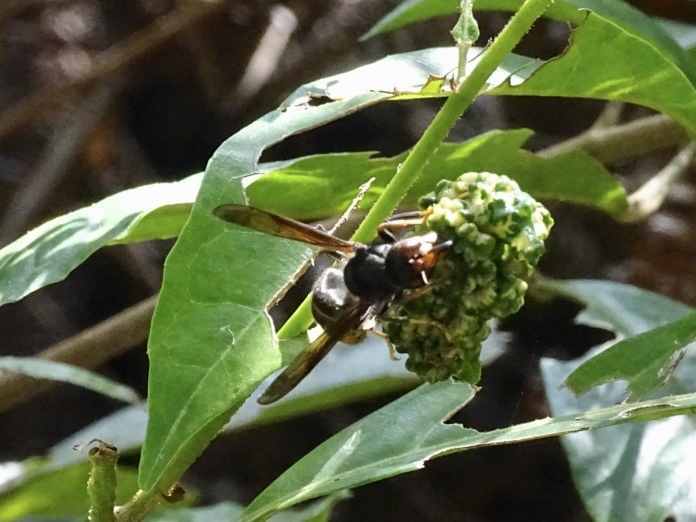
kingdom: Animalia
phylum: Arthropoda
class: Insecta
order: Hymenoptera
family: Vespidae
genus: Vespa
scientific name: Vespa velutina
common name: Asian hornet
